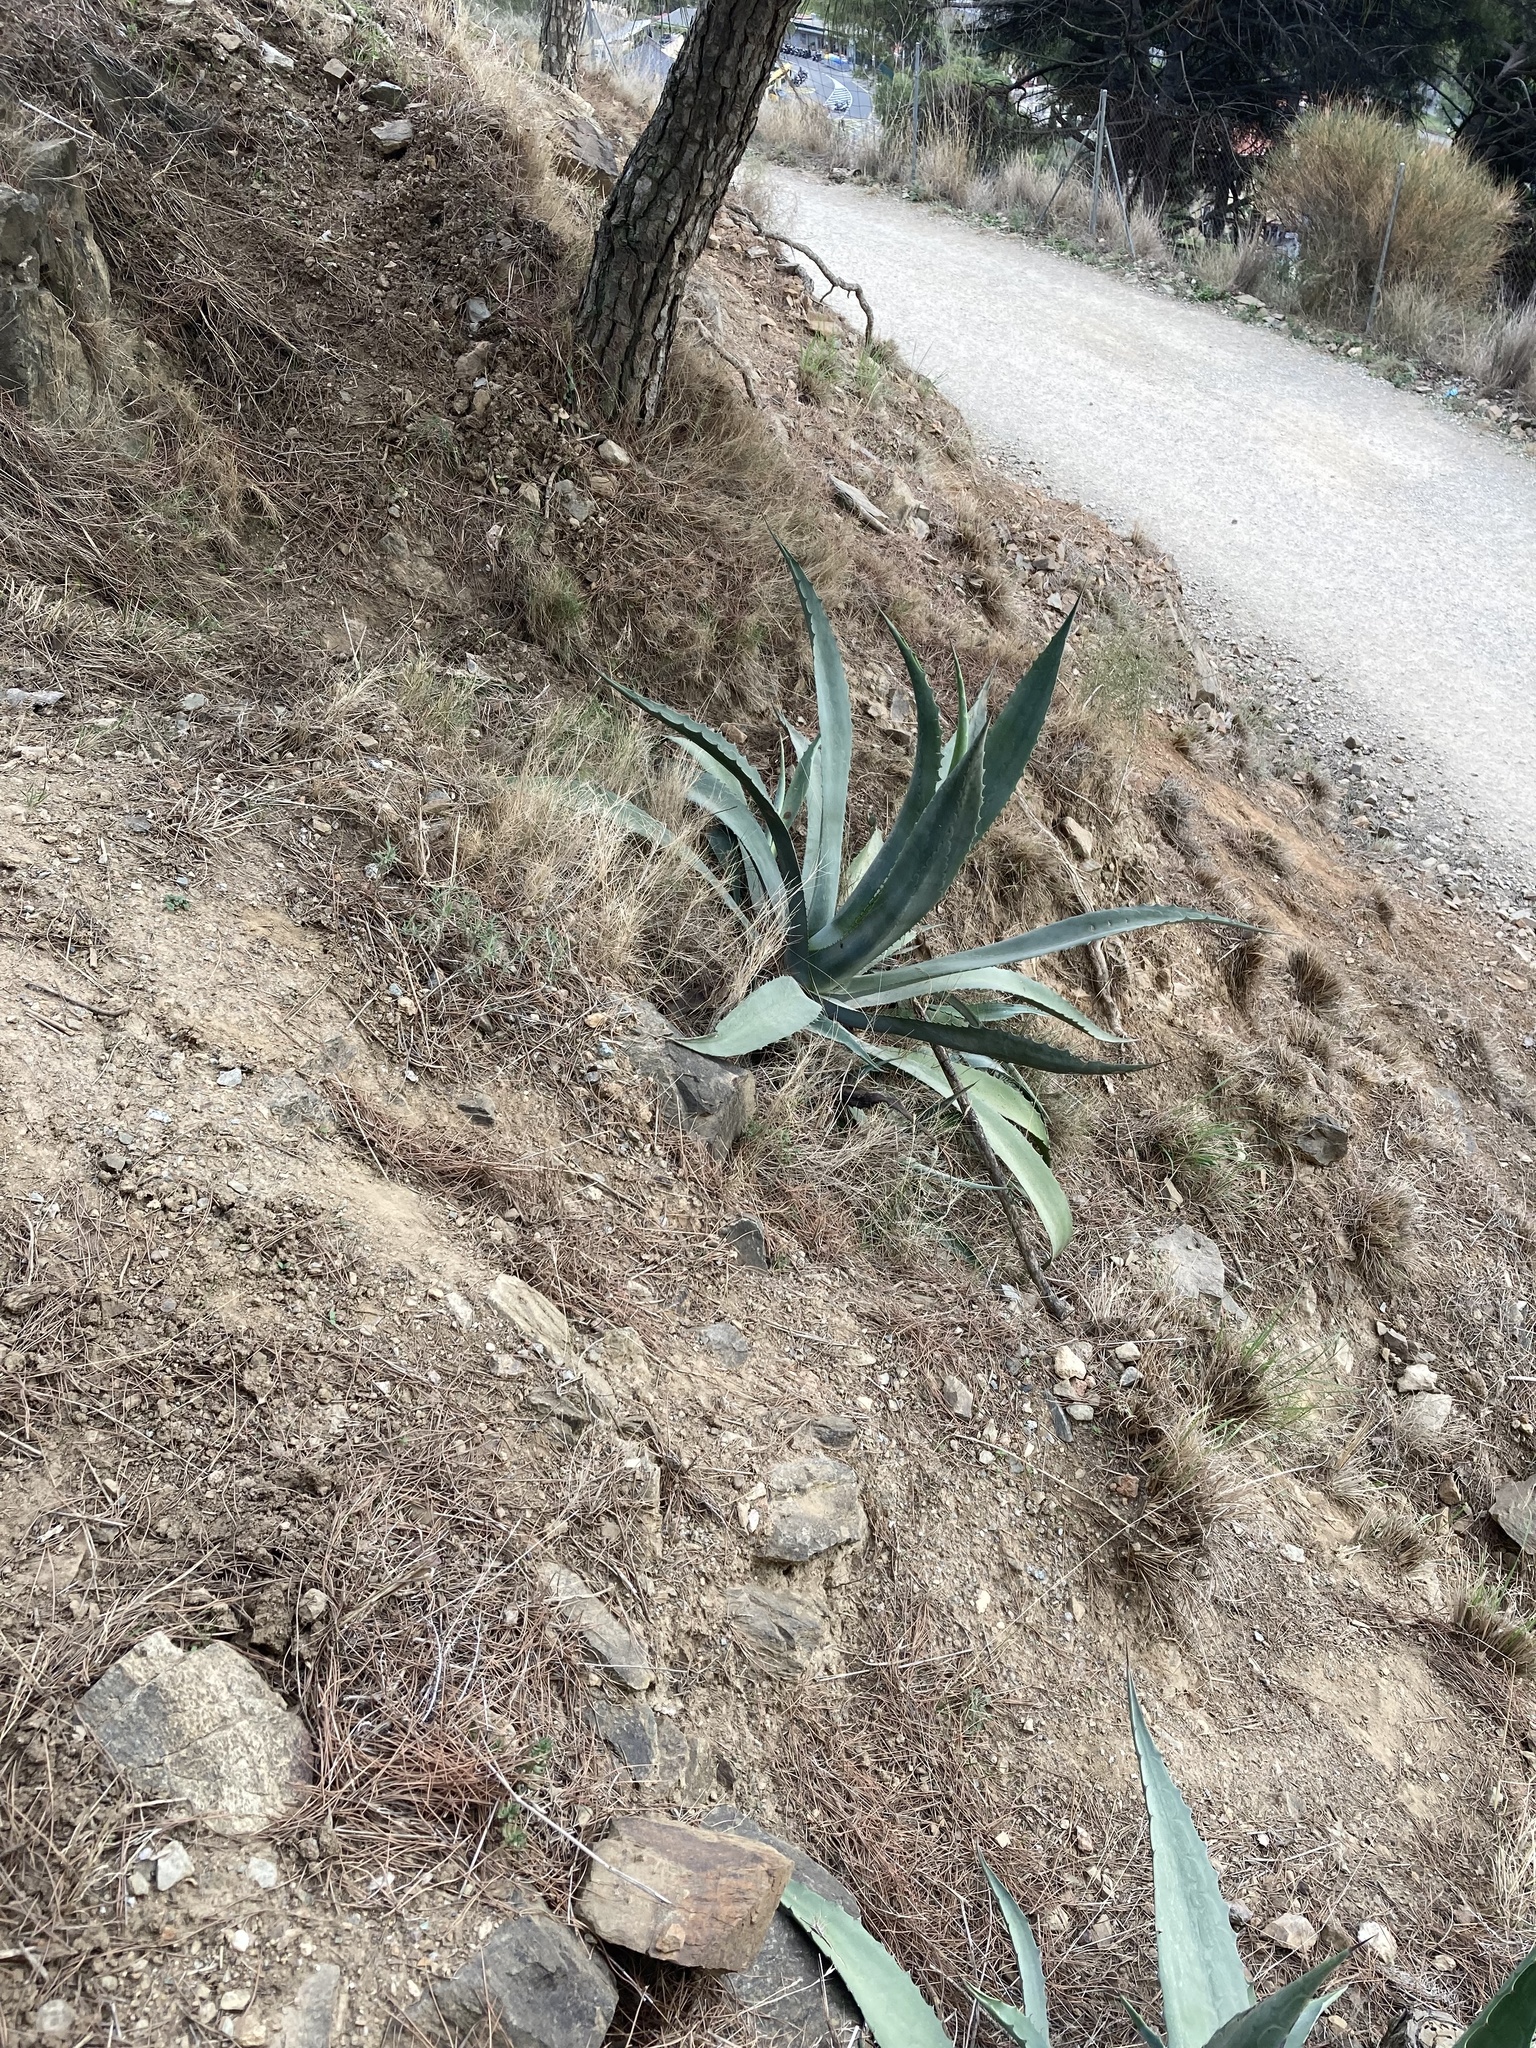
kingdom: Plantae
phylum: Tracheophyta
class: Liliopsida
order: Asparagales
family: Asparagaceae
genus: Agave
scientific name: Agave americana
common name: Centuryplant
